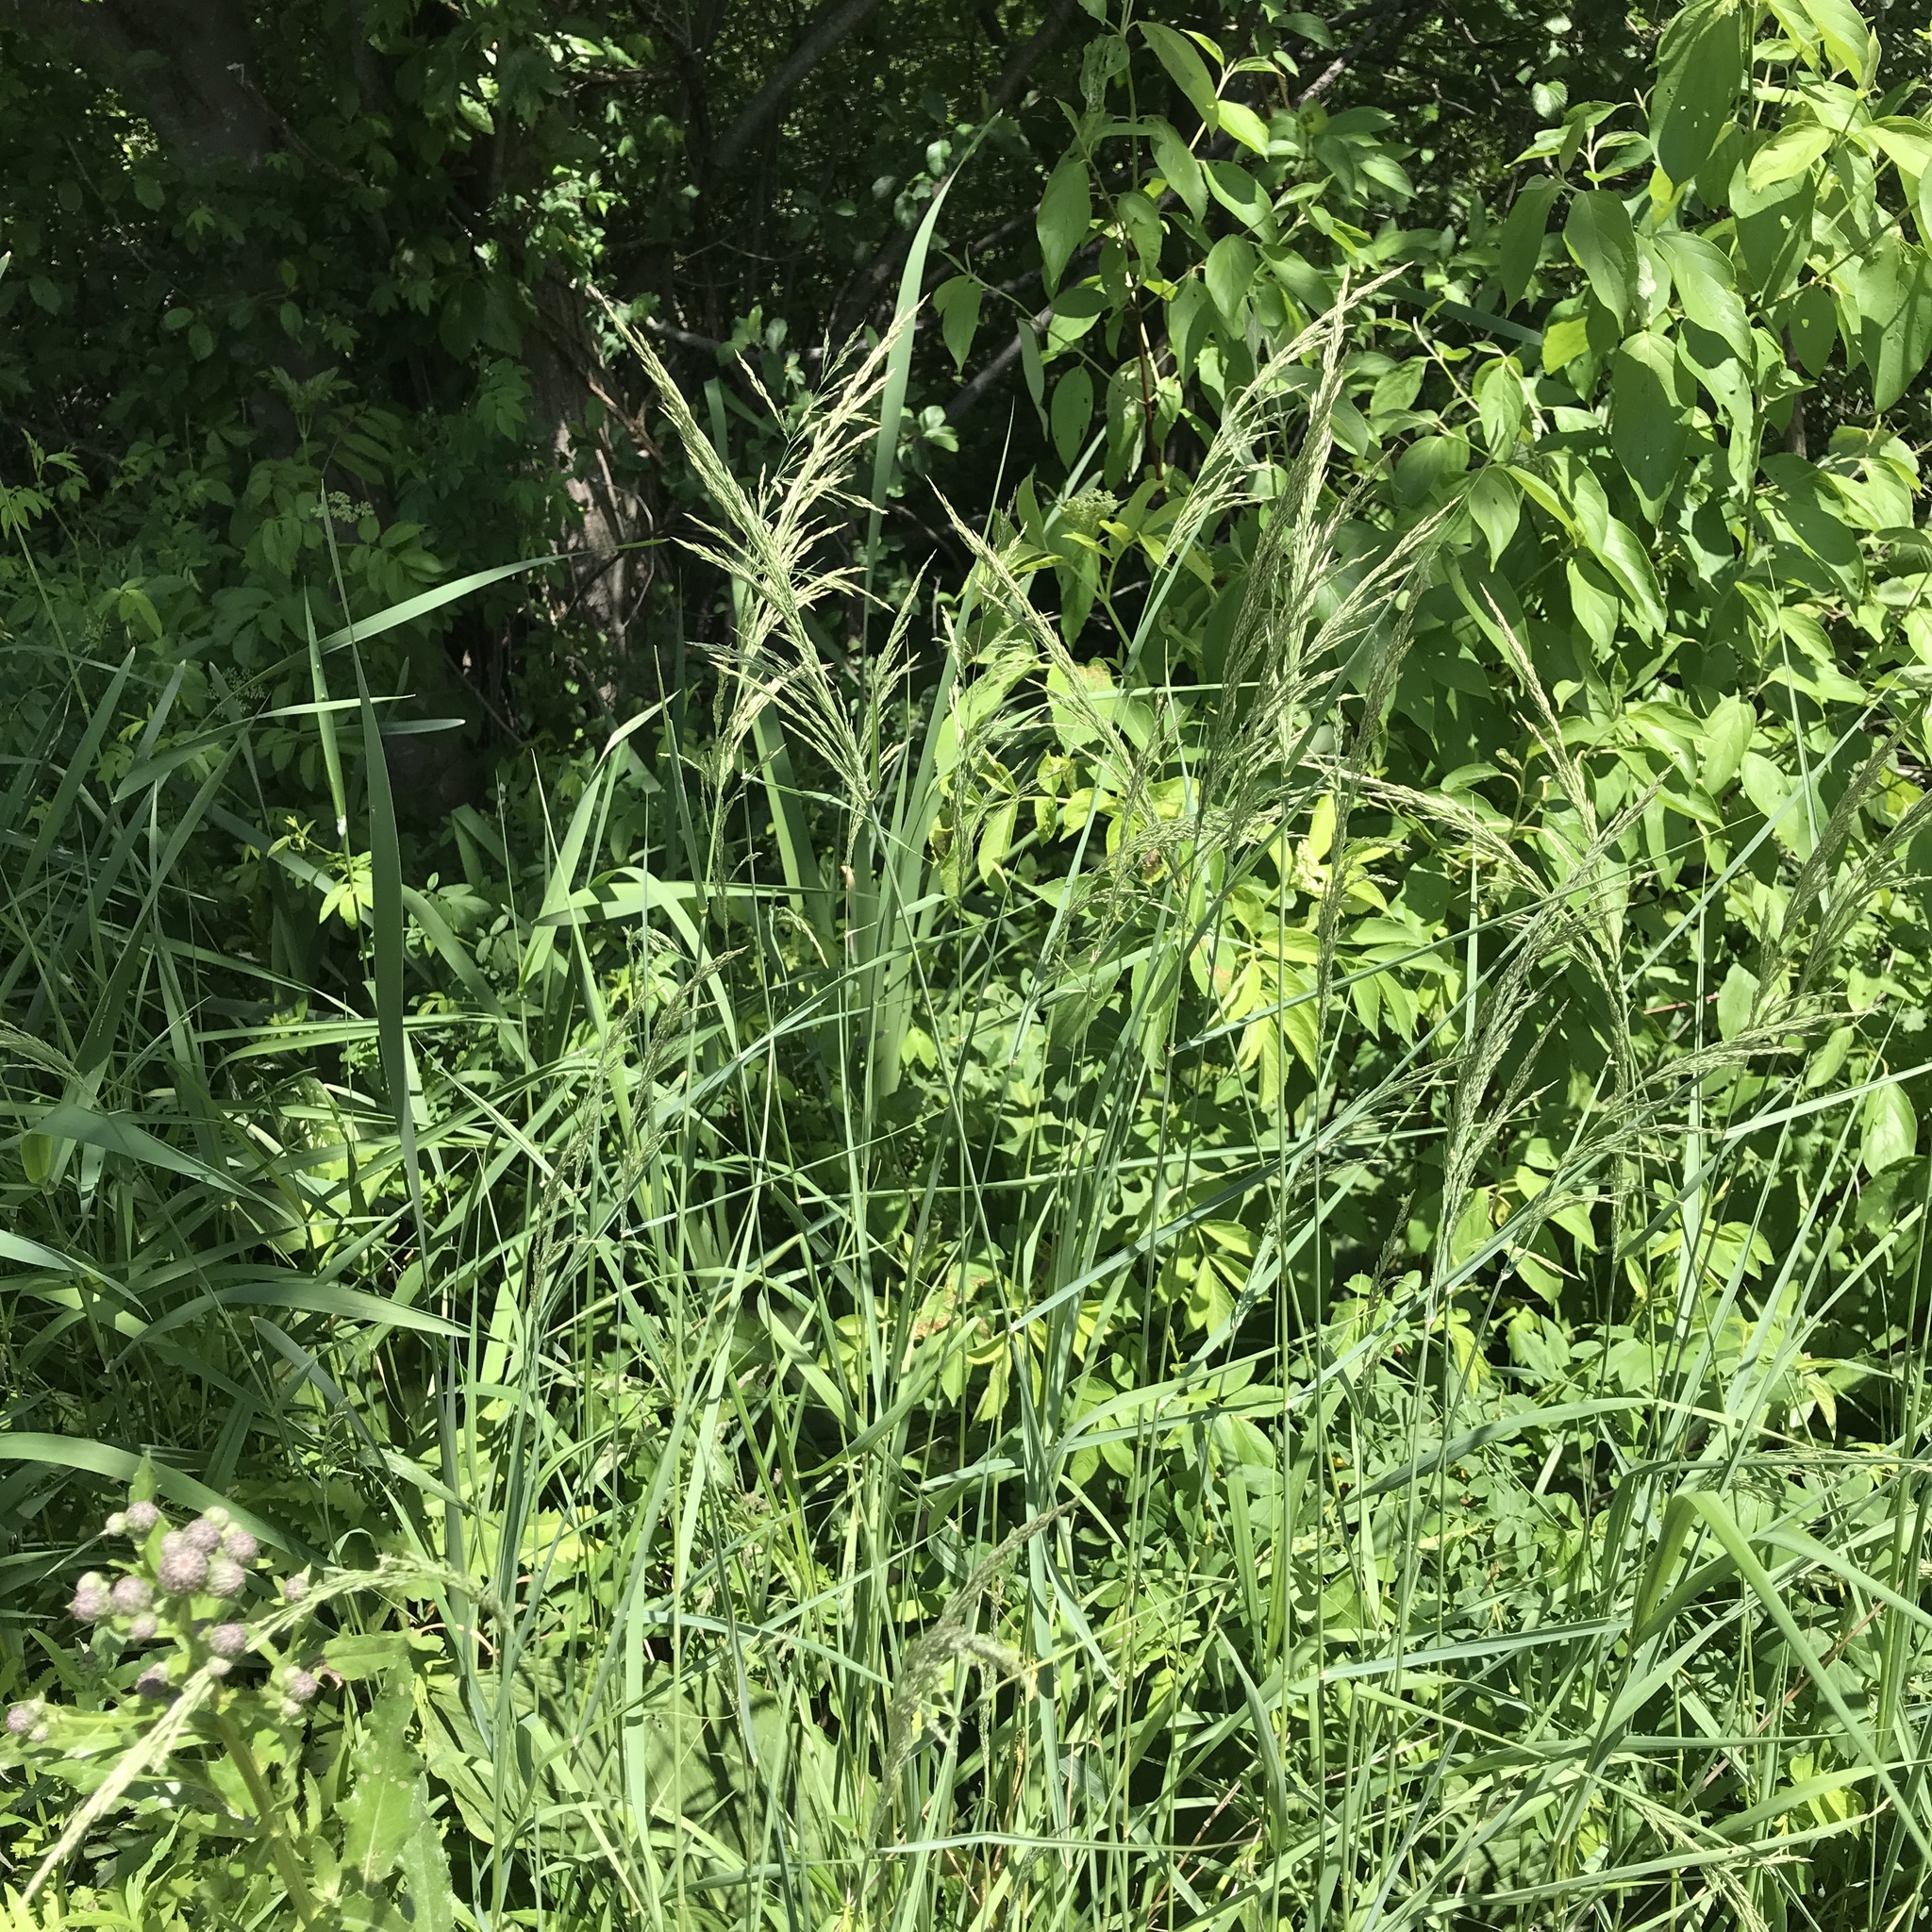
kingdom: Plantae
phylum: Tracheophyta
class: Liliopsida
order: Poales
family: Poaceae
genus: Calamagrostis
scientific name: Calamagrostis canadensis
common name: Canada bluejoint
